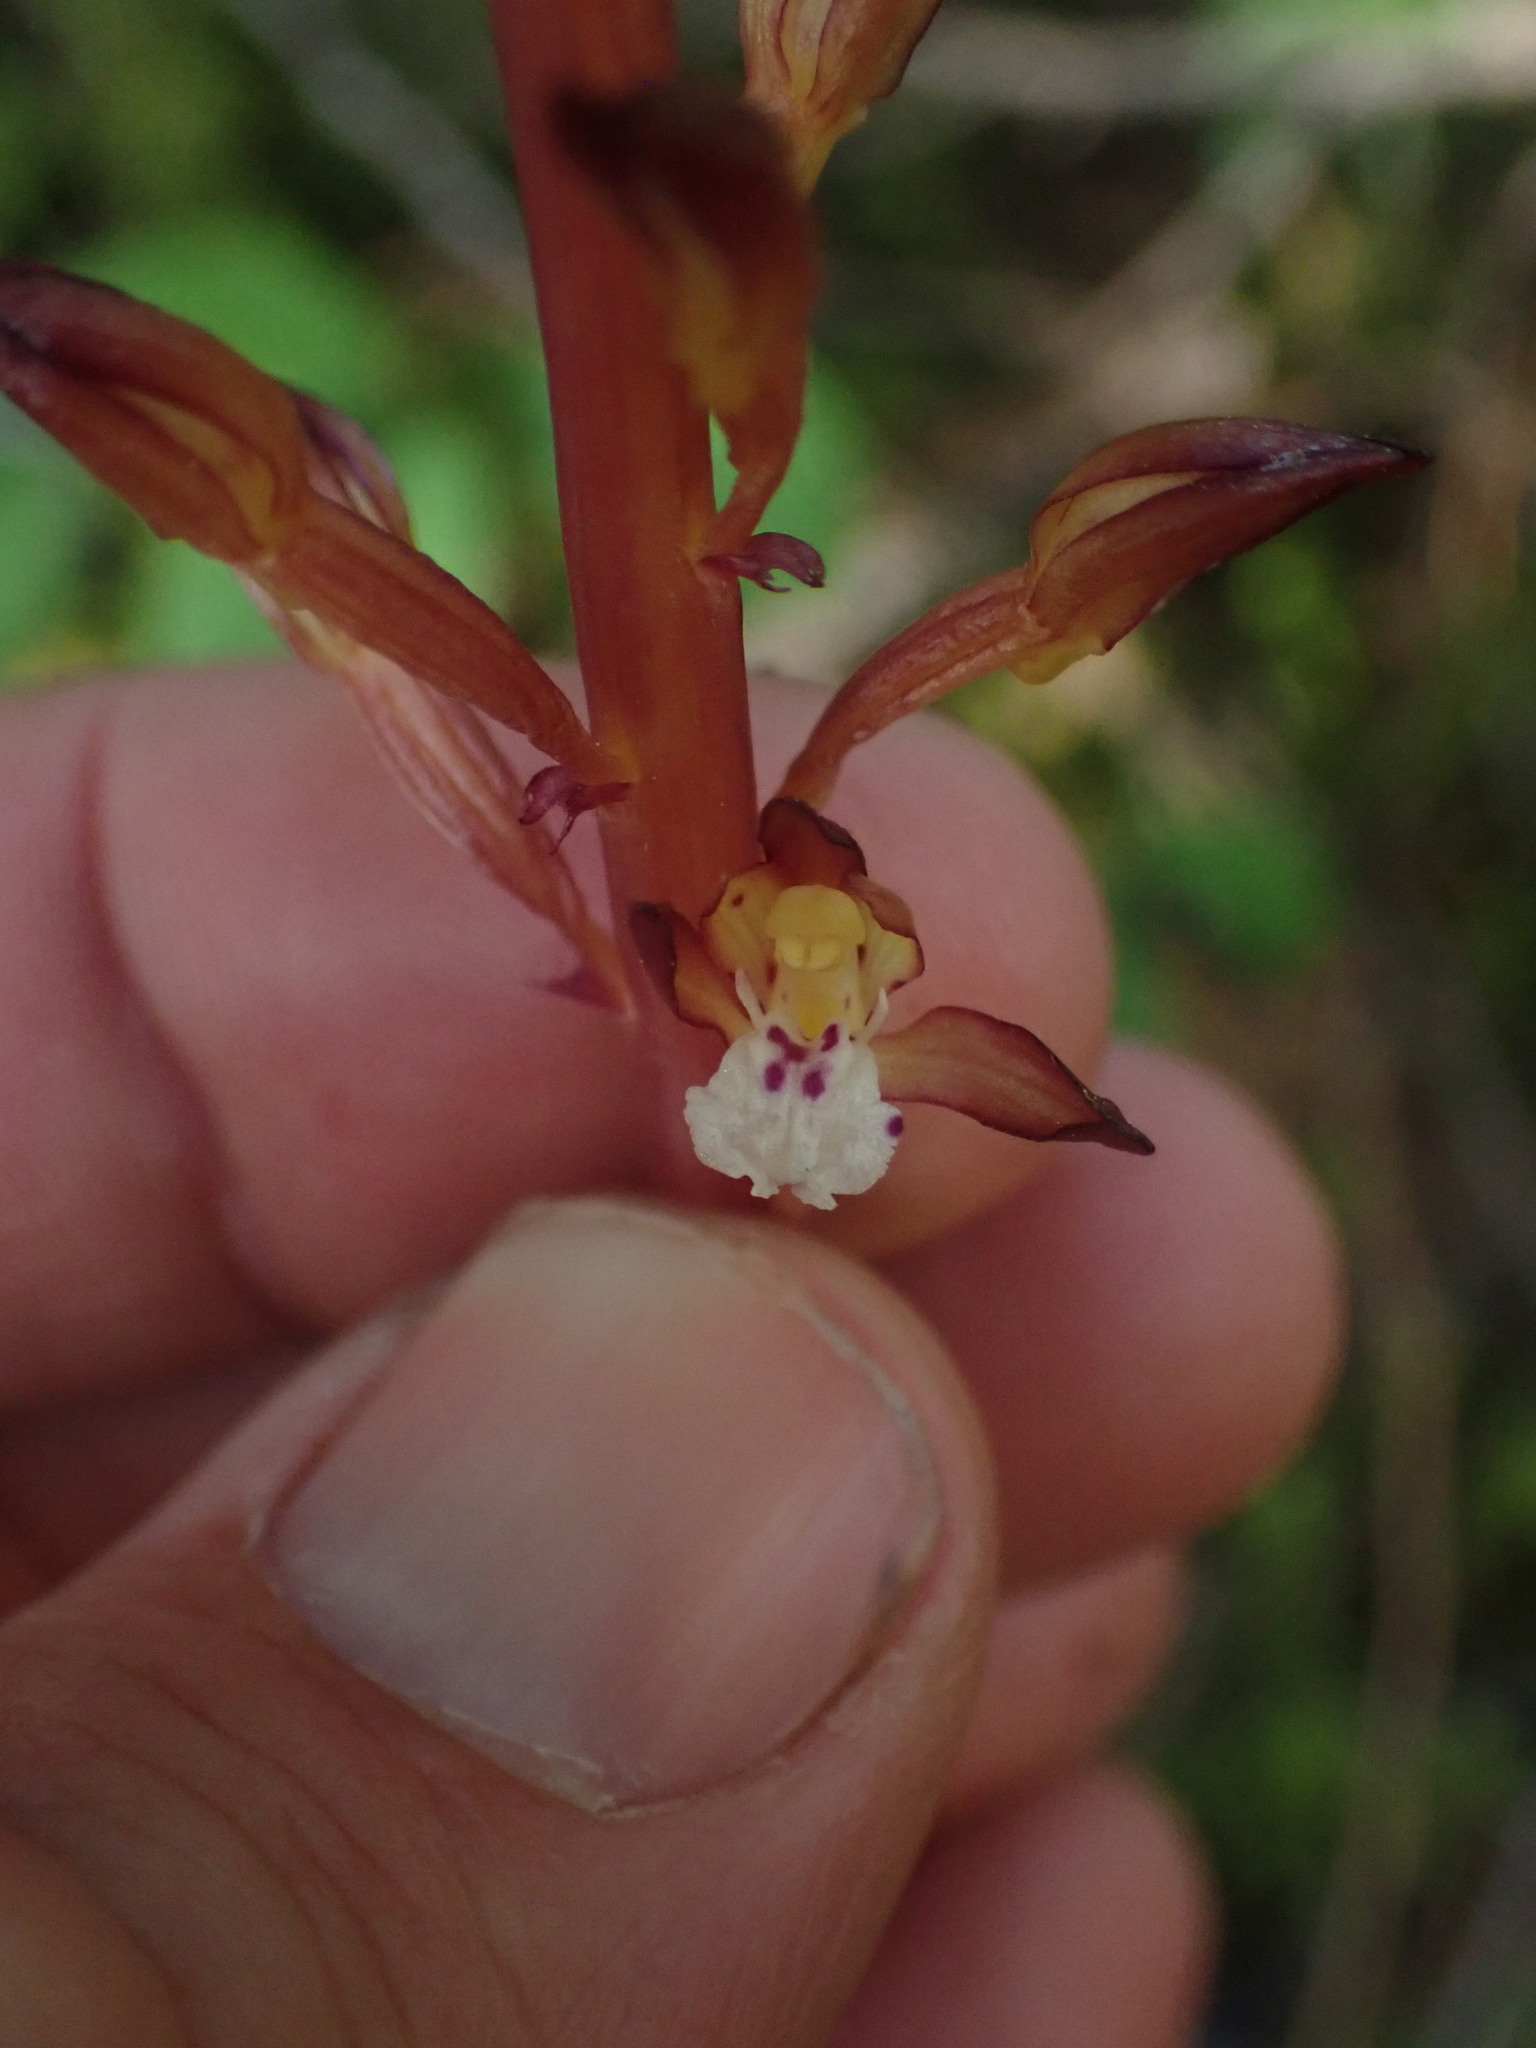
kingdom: Plantae
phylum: Tracheophyta
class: Liliopsida
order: Asparagales
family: Orchidaceae
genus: Corallorhiza
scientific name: Corallorhiza maculata
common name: Spotted coralroot
